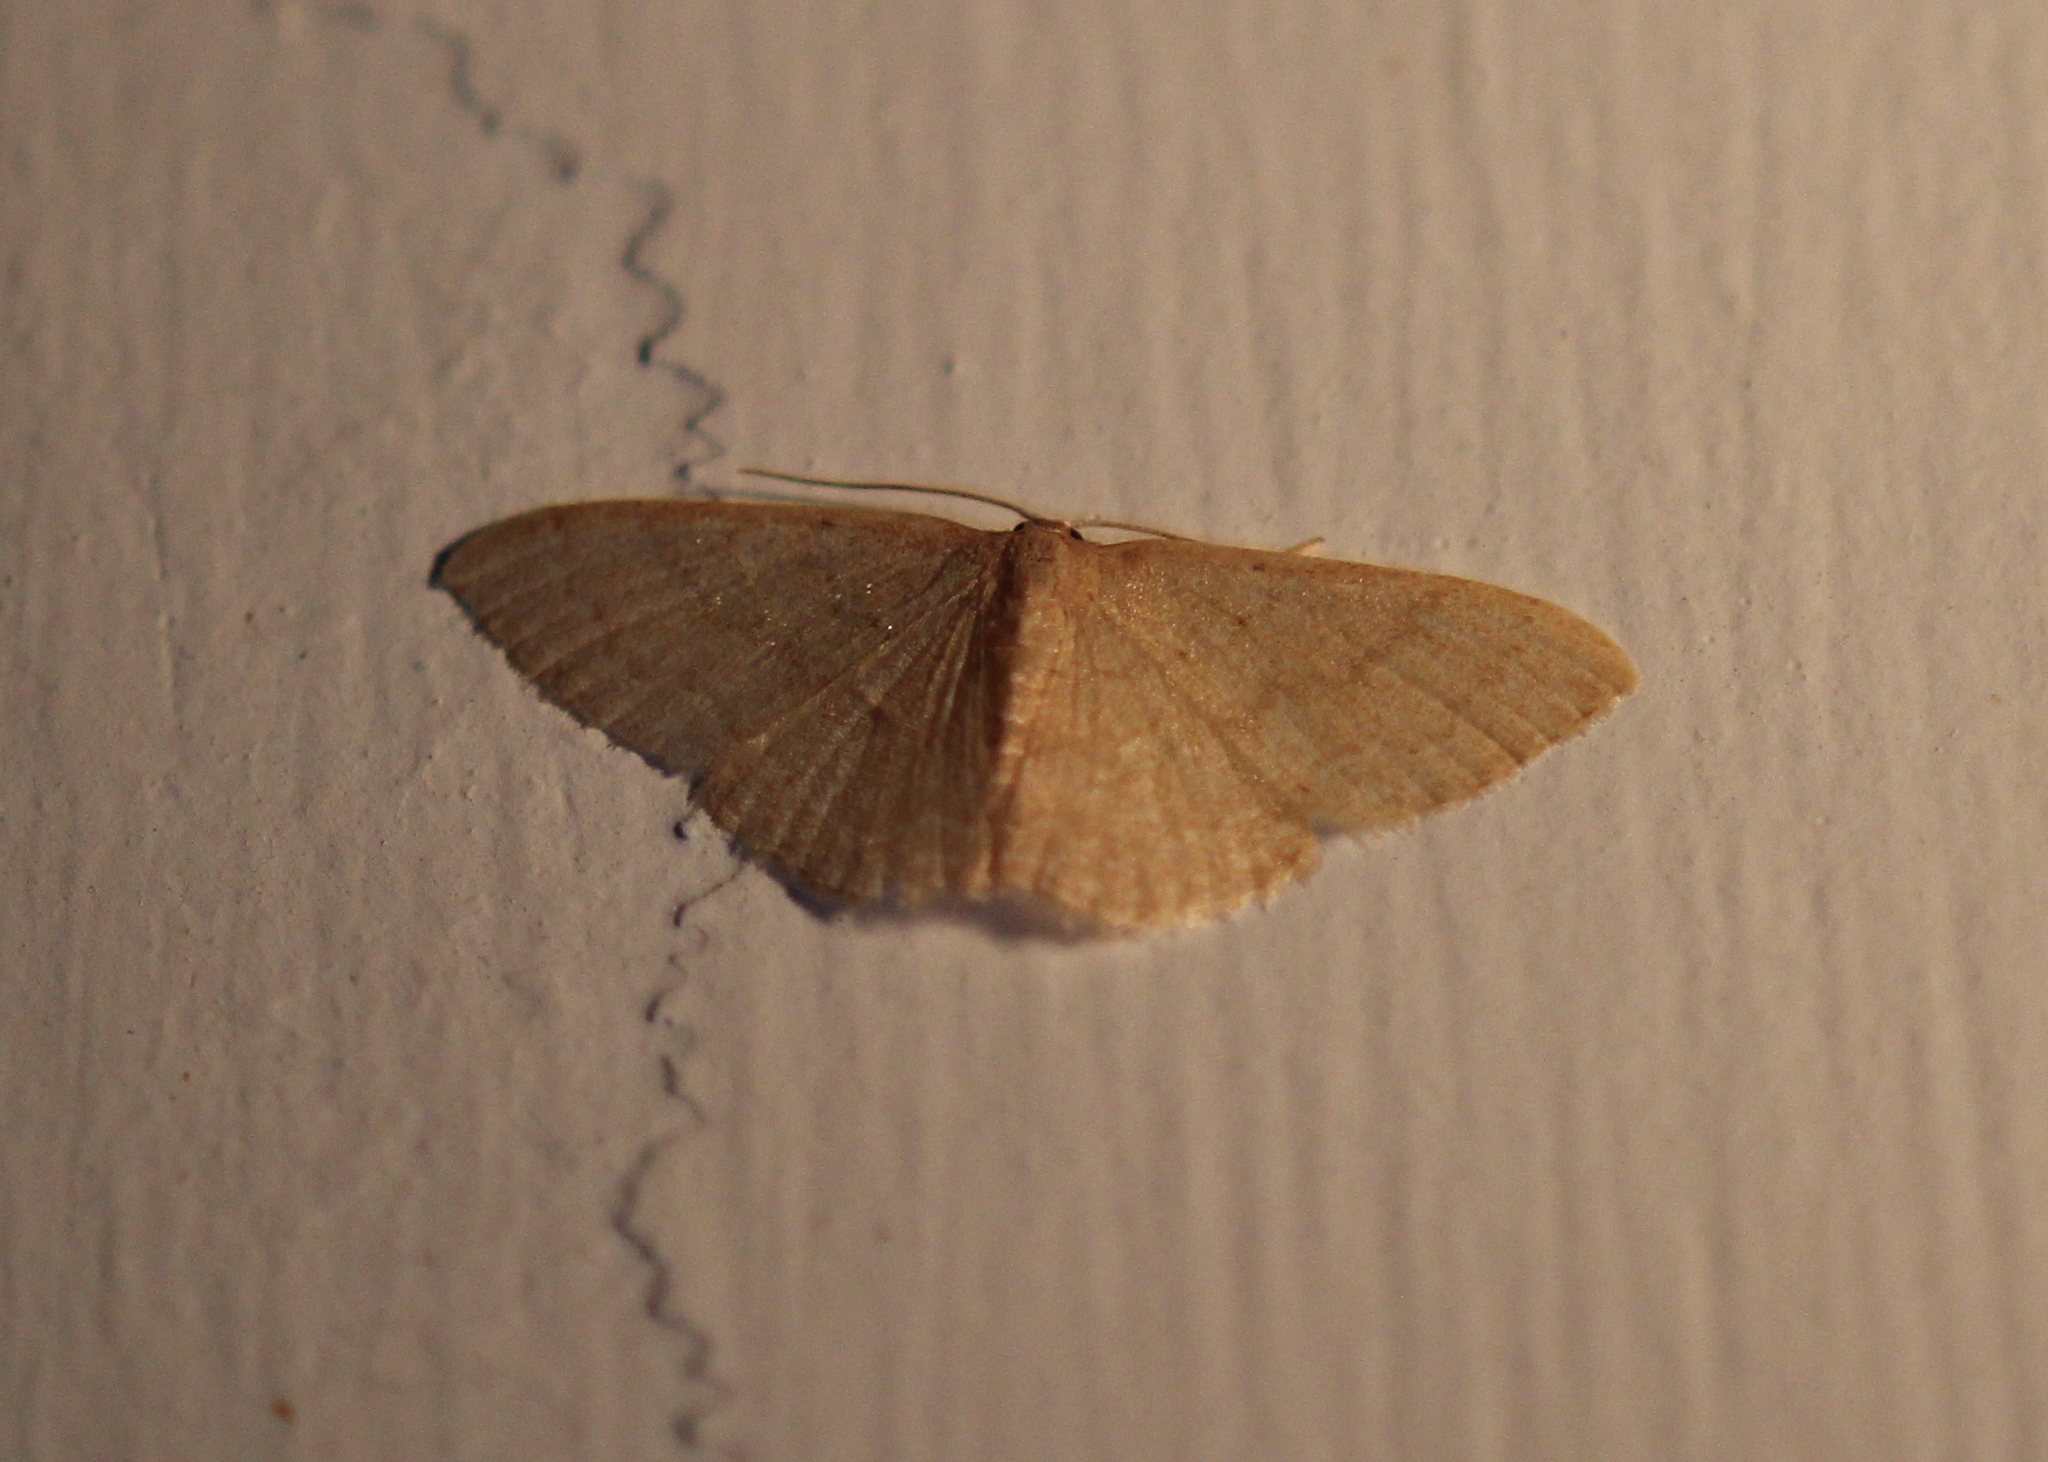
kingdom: Animalia
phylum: Arthropoda
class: Insecta
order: Lepidoptera
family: Geometridae
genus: Pleuroprucha
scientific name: Pleuroprucha insulsaria
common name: Common tan wave
